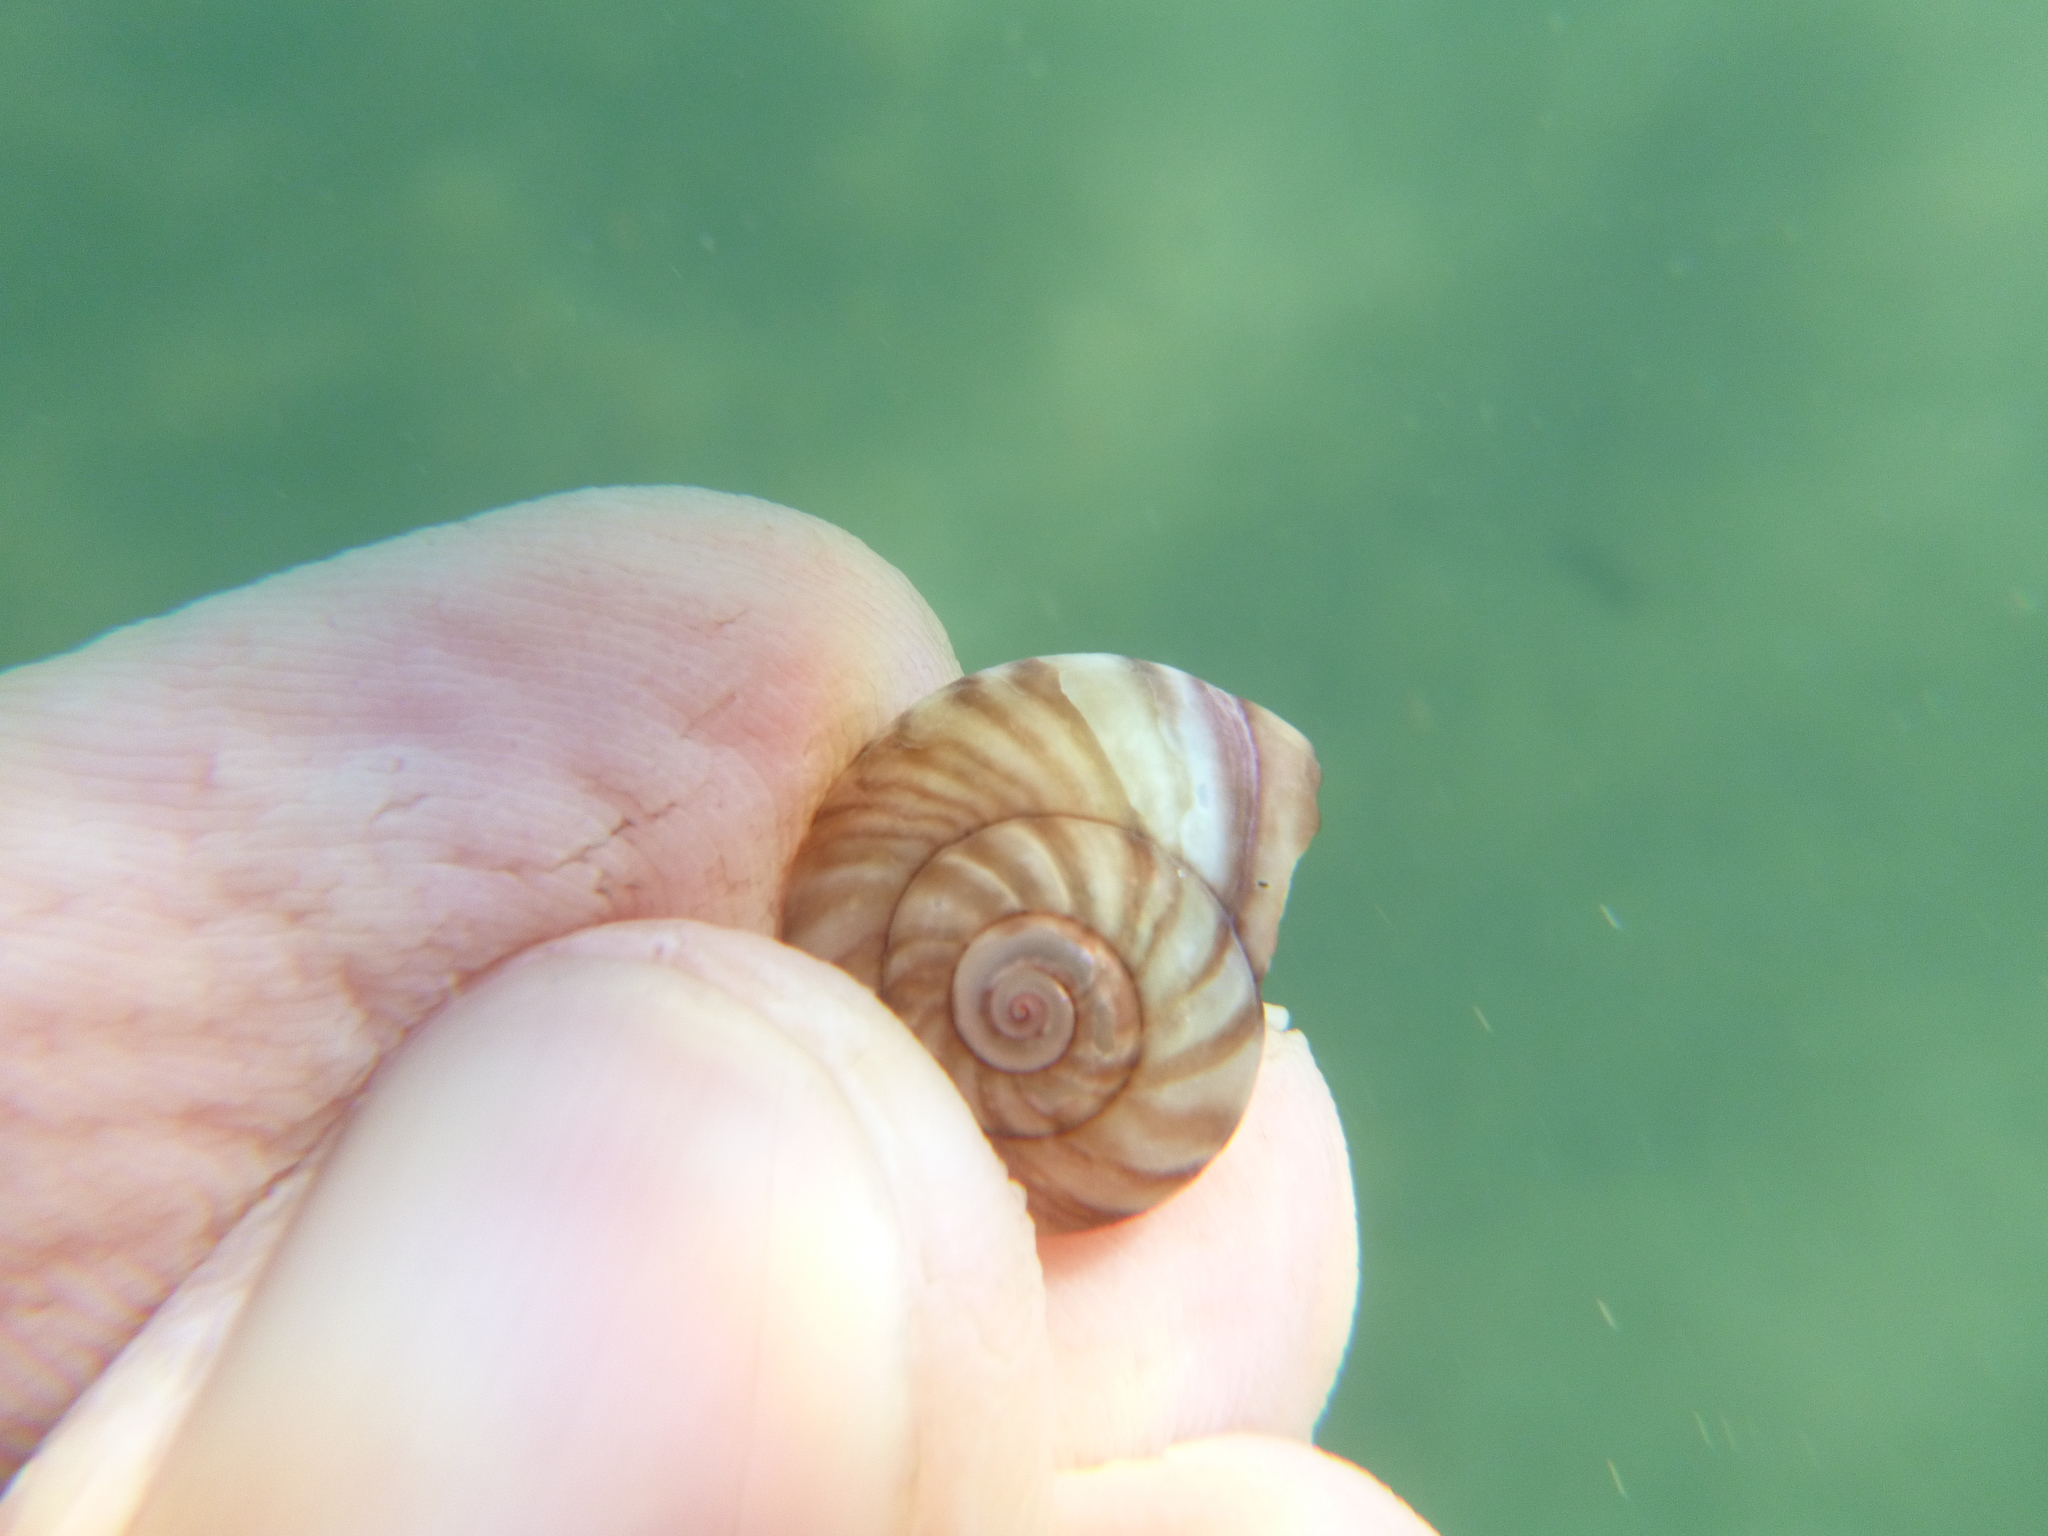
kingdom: Animalia
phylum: Mollusca
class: Gastropoda
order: Trochida
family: Trochidae
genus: Zethalia
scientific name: Zethalia zelandica
